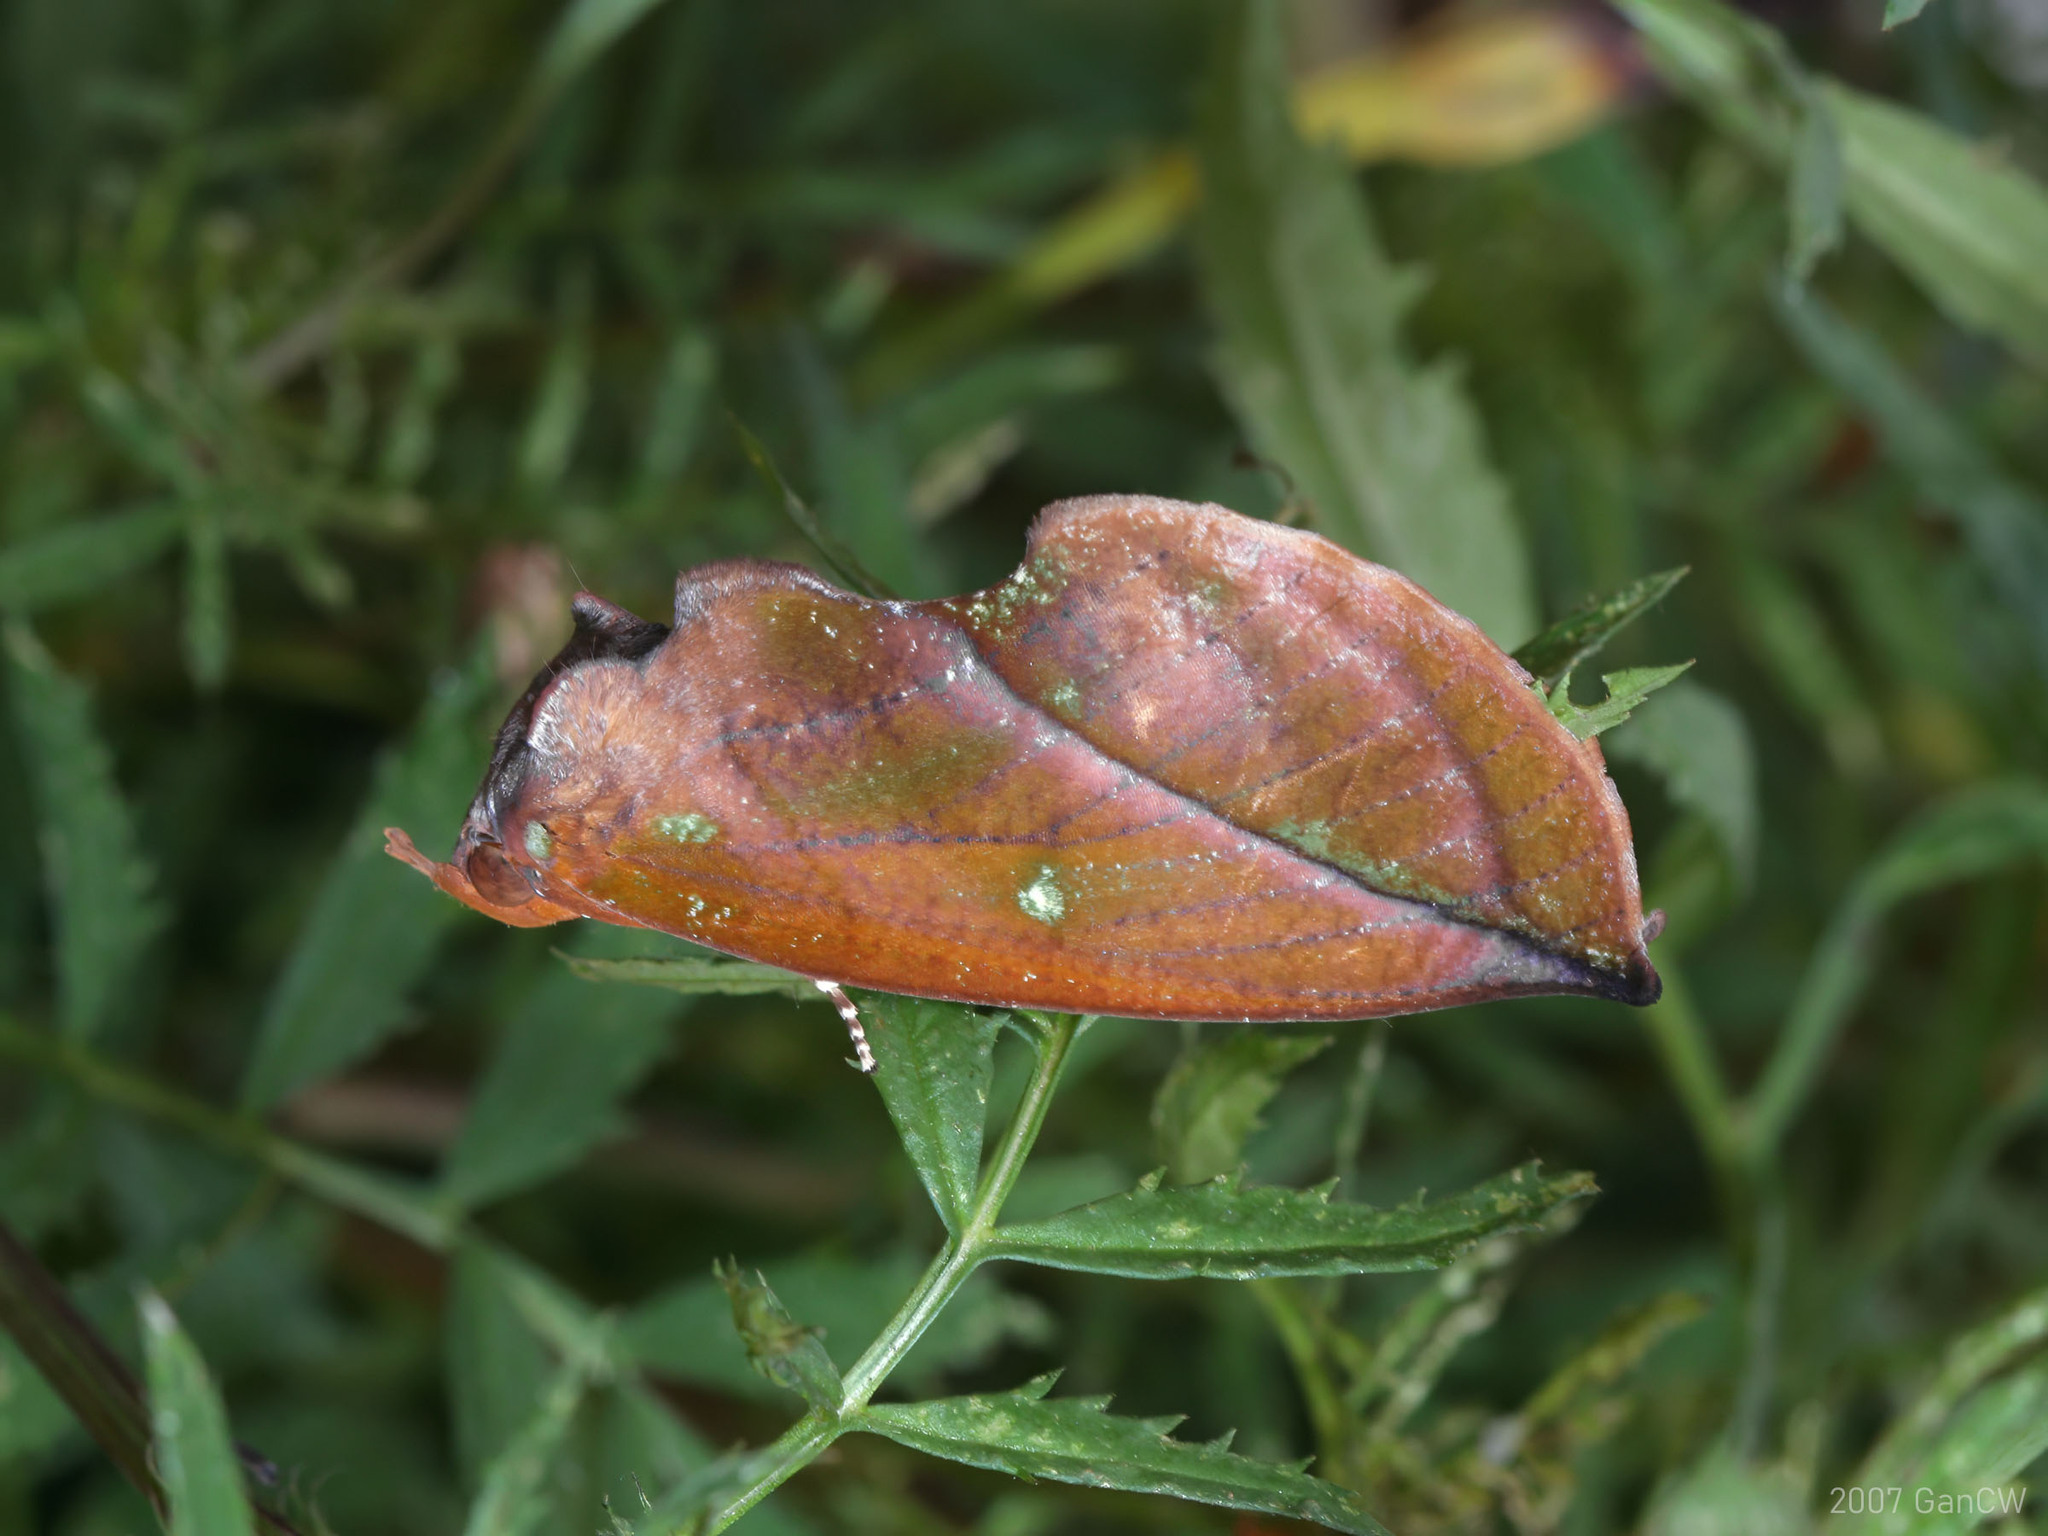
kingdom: Animalia
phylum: Arthropoda
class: Insecta
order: Lepidoptera
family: Erebidae
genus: Eudocima
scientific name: Eudocima aurantia
